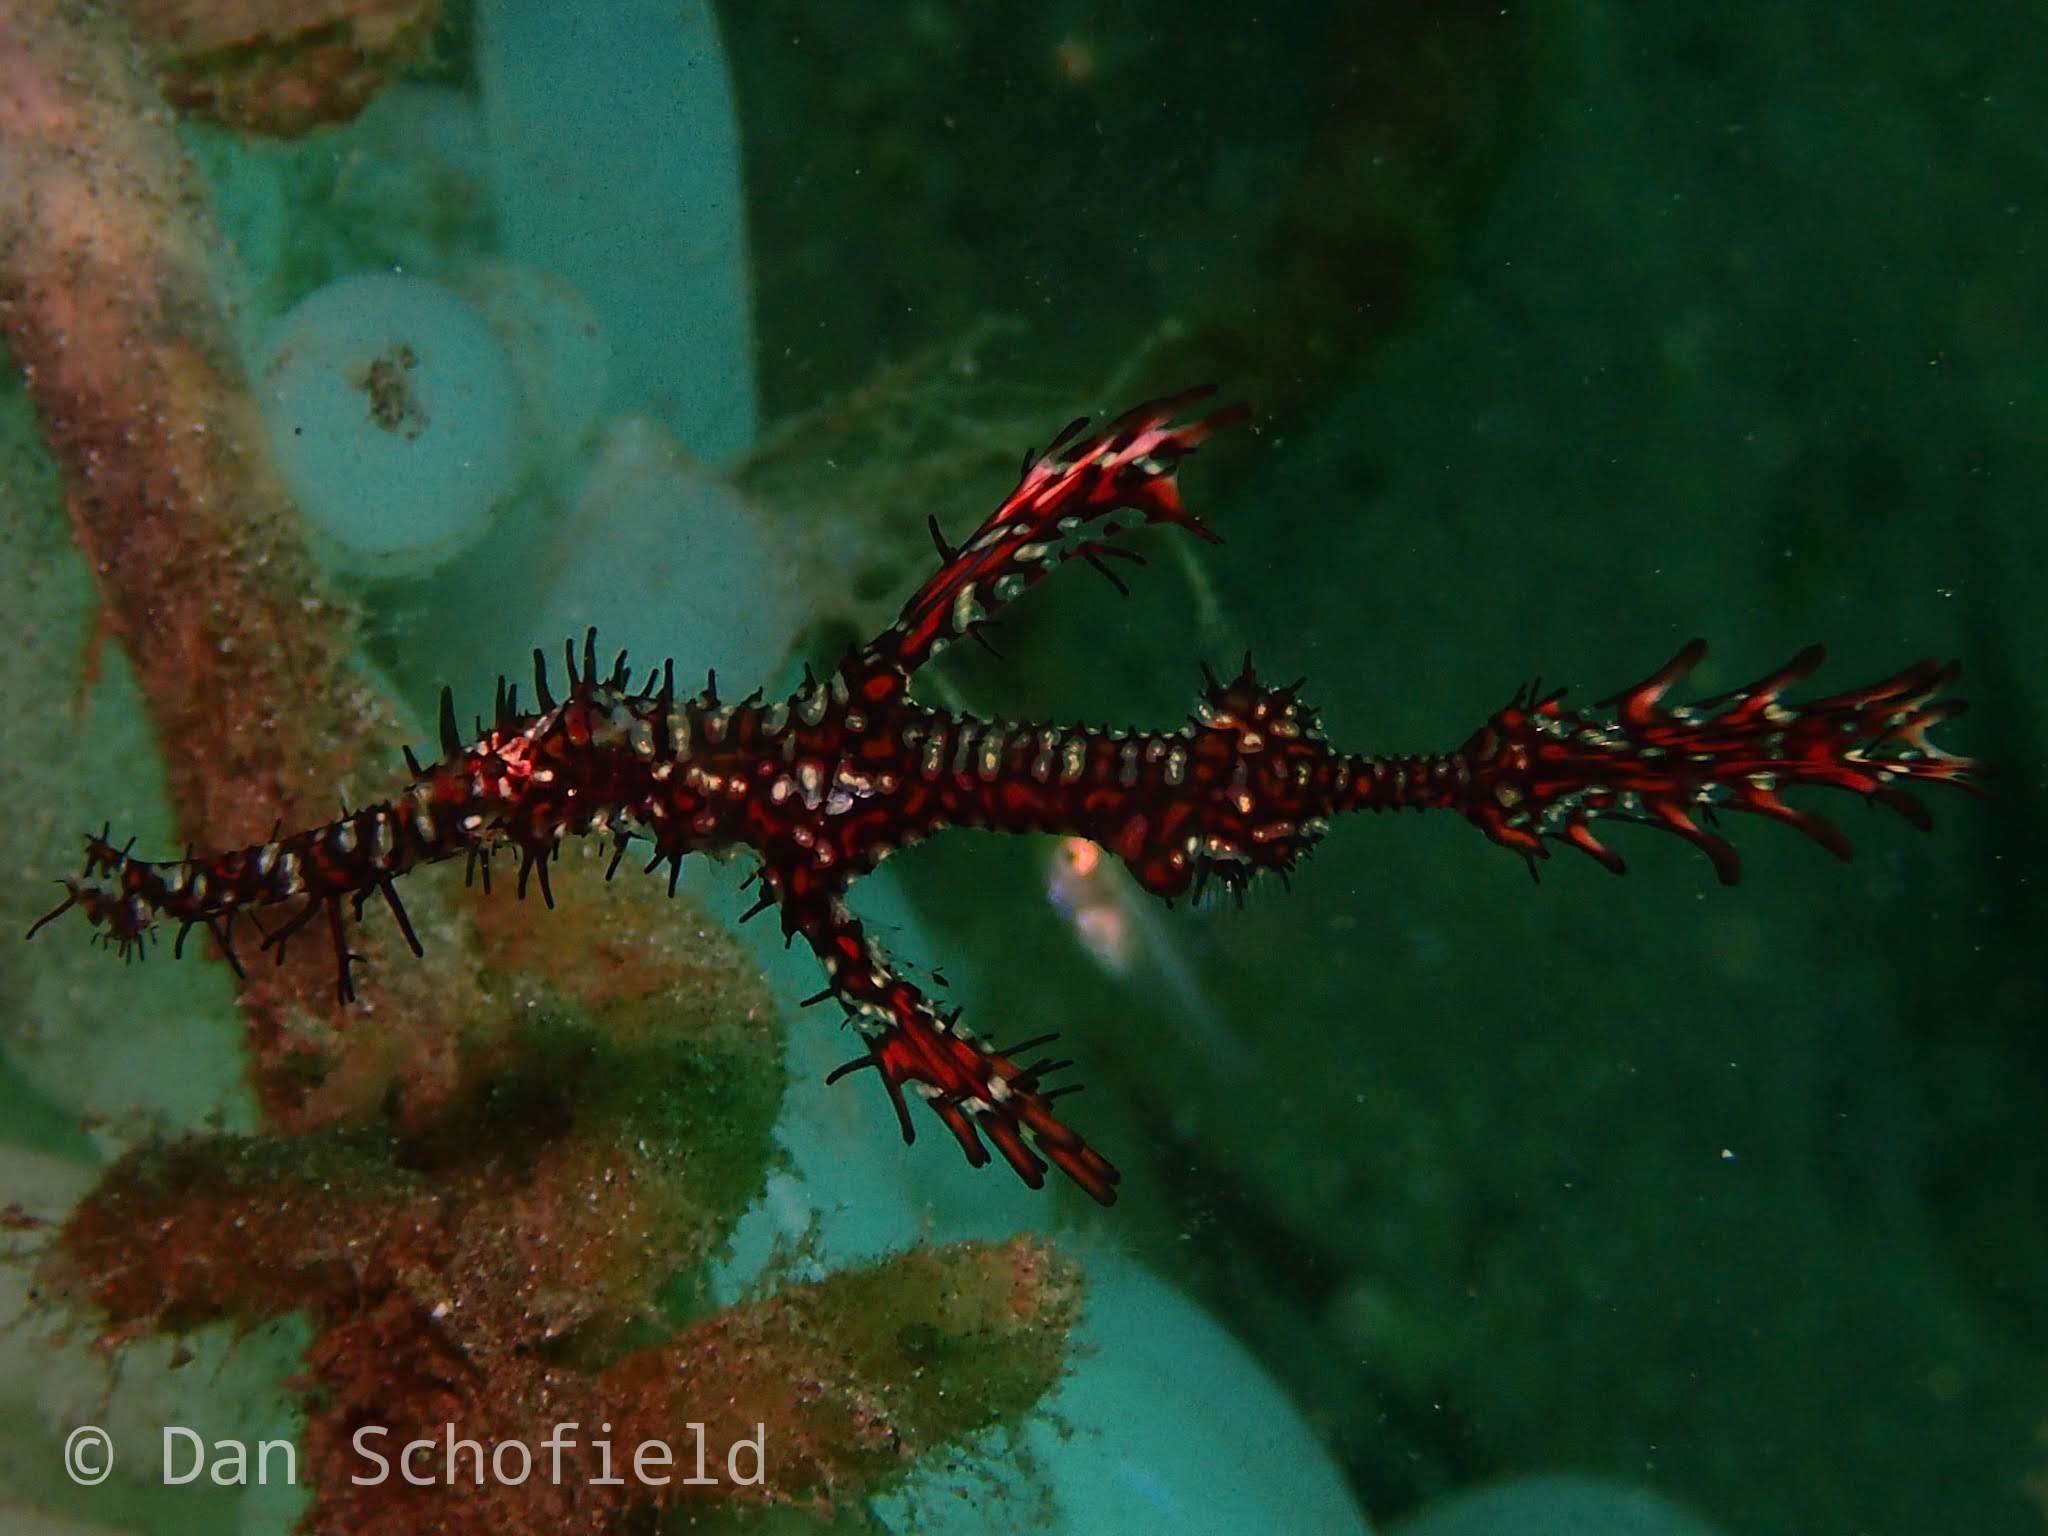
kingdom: Animalia
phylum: Chordata
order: Syngnathiformes
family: Solenostomidae
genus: Solenostomus
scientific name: Solenostomus paradoxus
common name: Ghost pipefish
